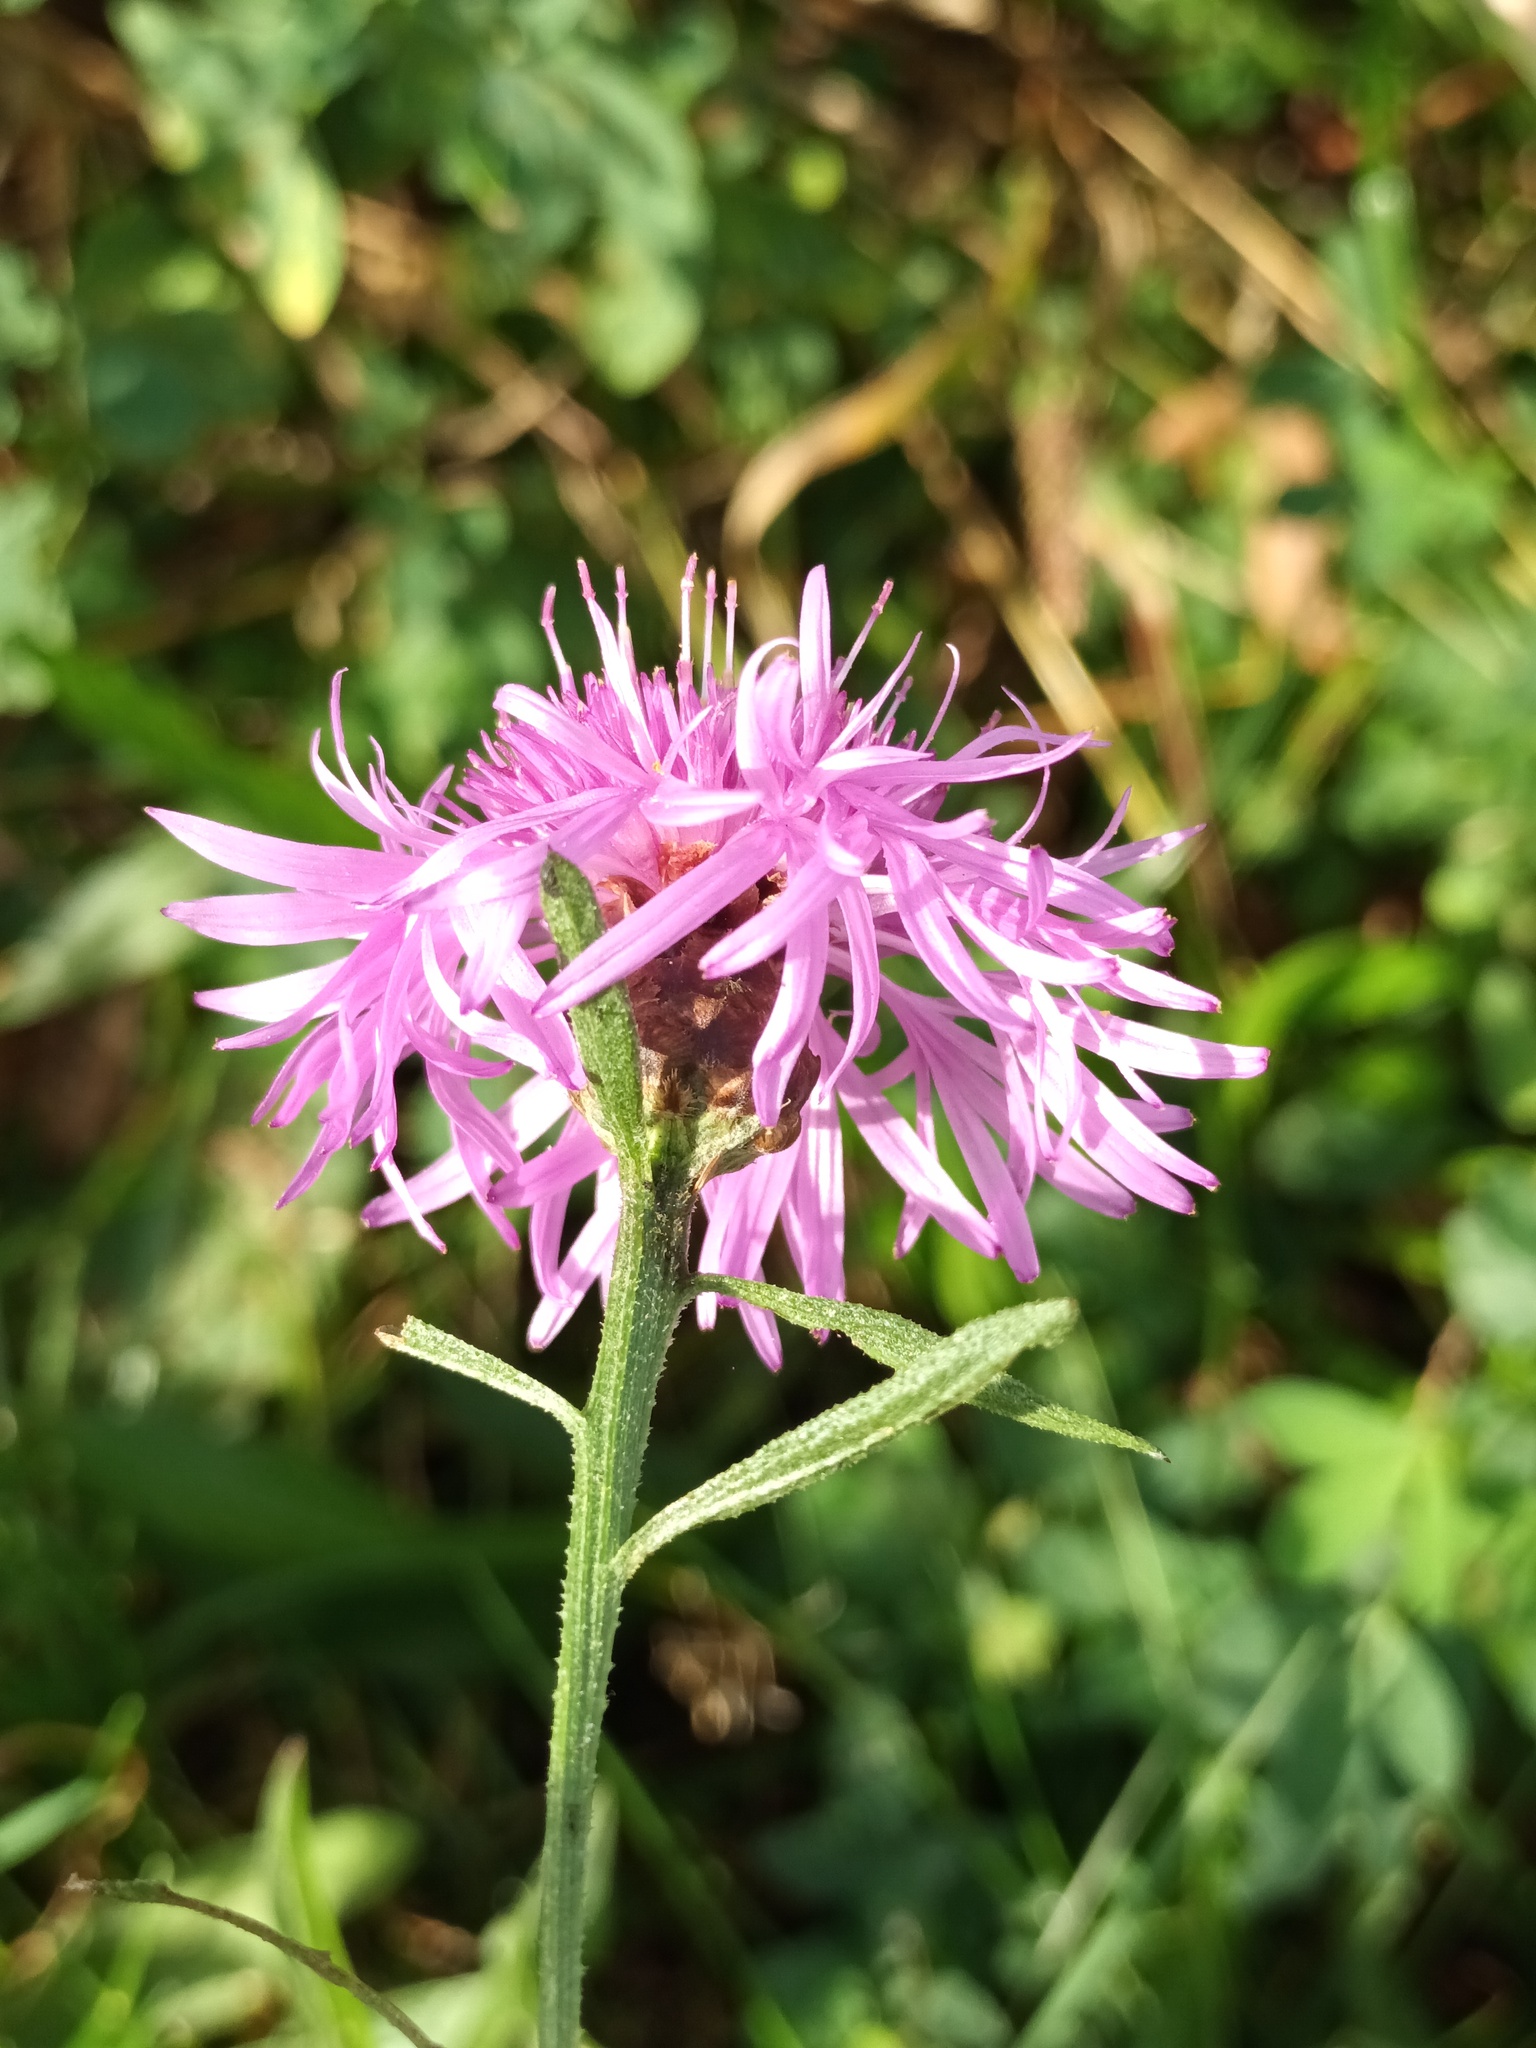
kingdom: Plantae
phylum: Tracheophyta
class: Magnoliopsida
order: Asterales
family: Asteraceae
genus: Centaurea
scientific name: Centaurea jacea
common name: Brown knapweed
